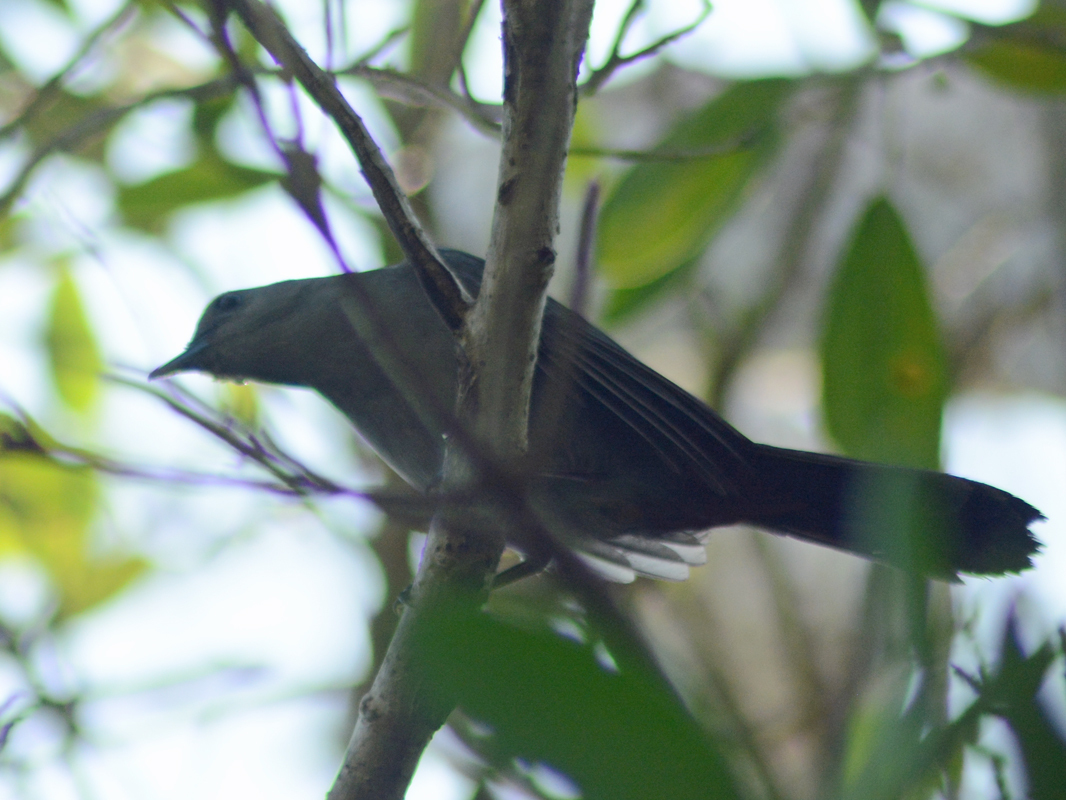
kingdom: Animalia
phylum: Chordata
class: Aves
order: Passeriformes
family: Mimidae
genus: Dumetella
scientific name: Dumetella carolinensis
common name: Gray catbird
